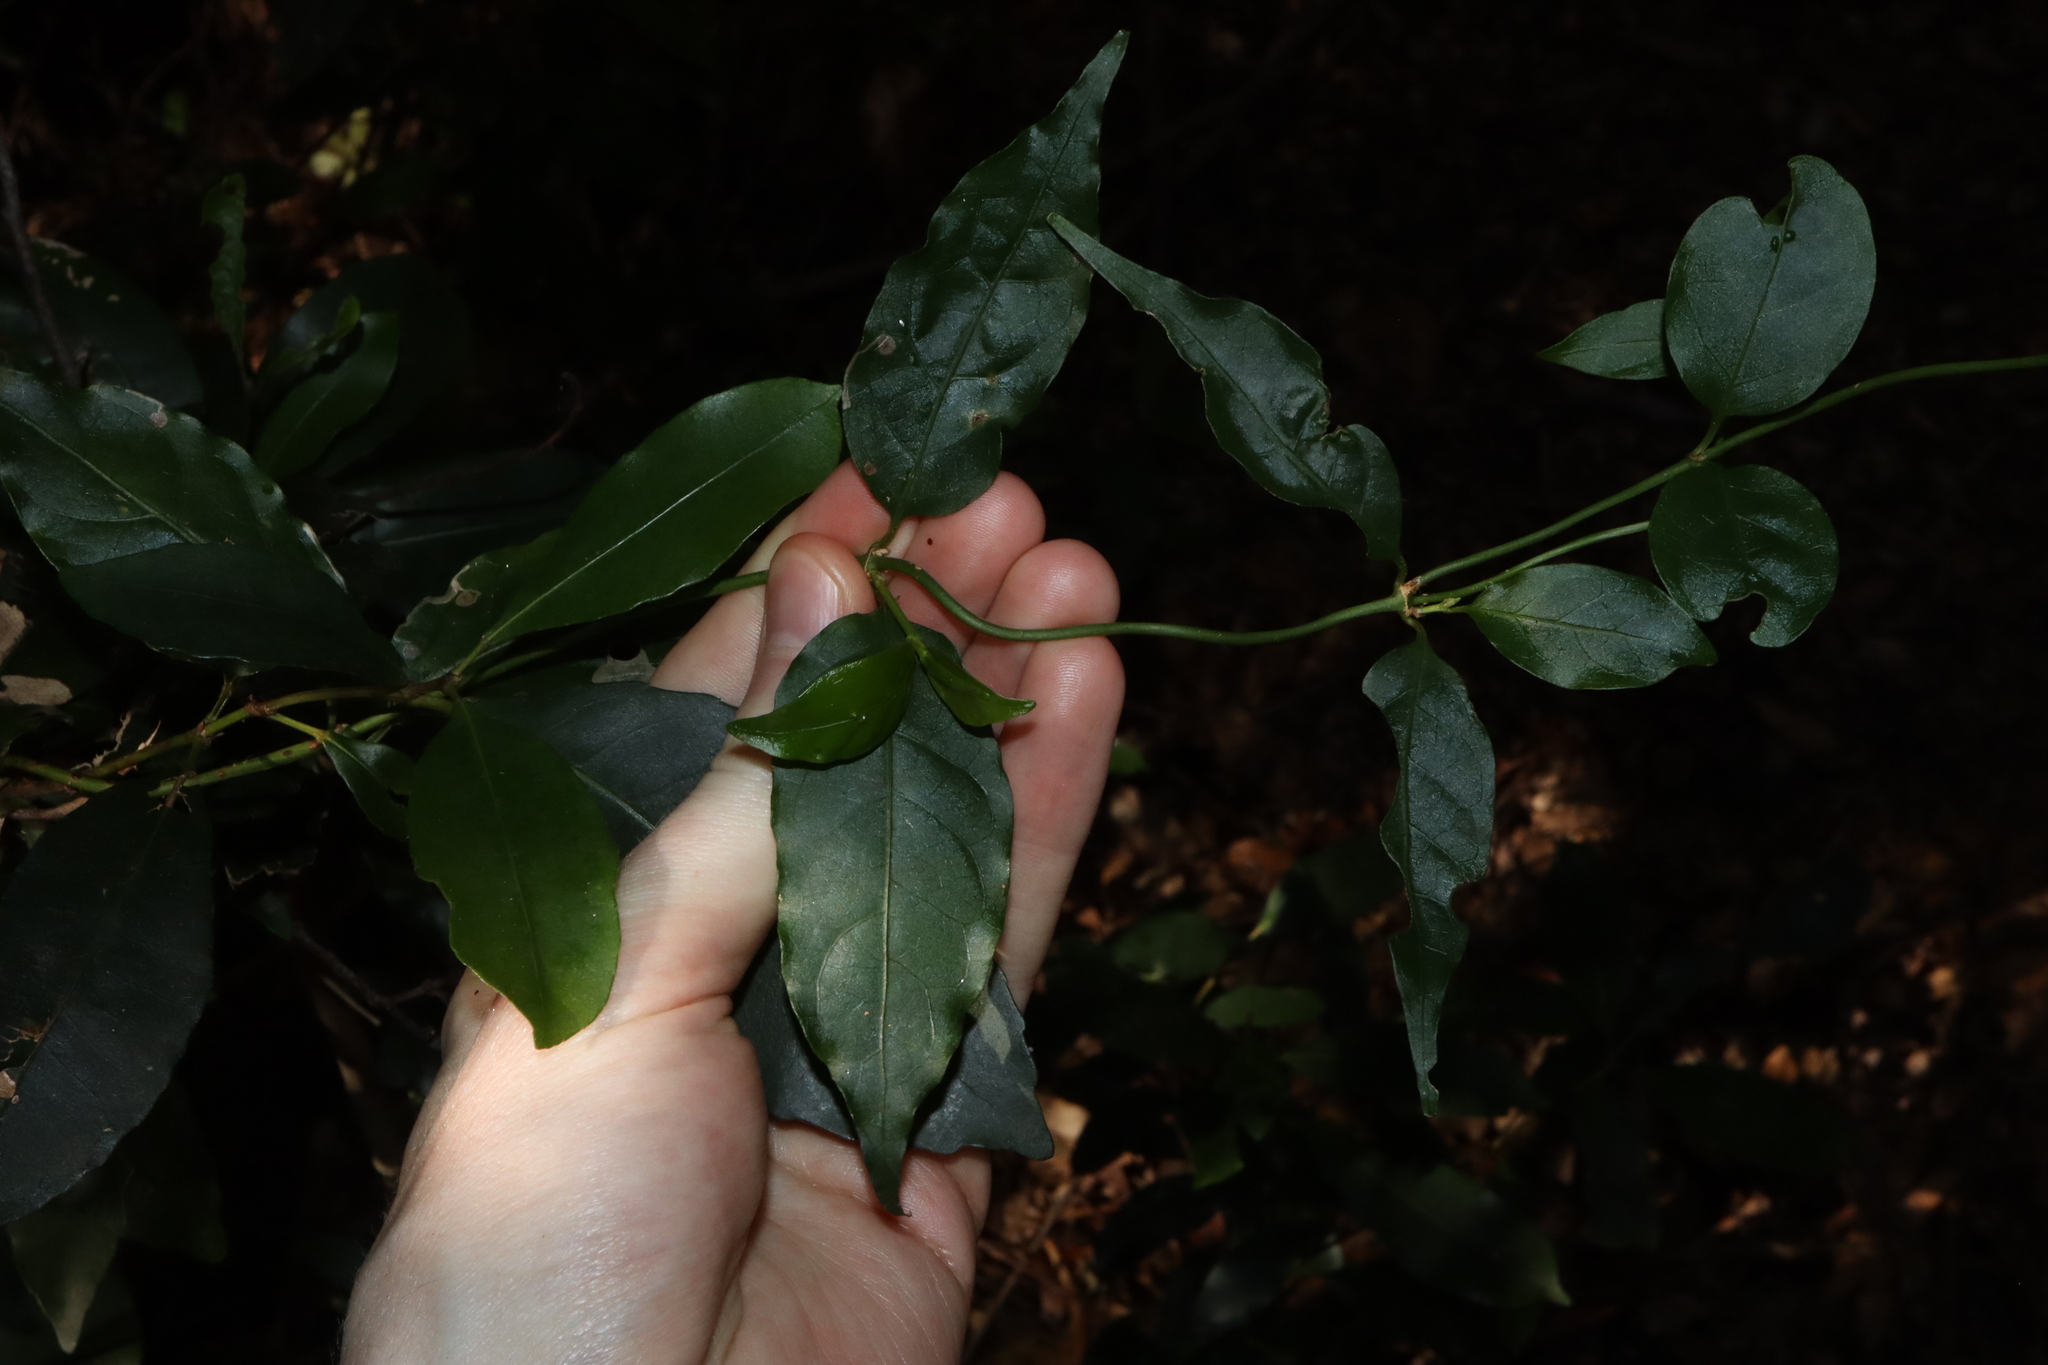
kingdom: Plantae
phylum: Tracheophyta
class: Magnoliopsida
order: Gentianales
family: Rubiaceae
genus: Gynochthodes
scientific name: Gynochthodes jasminoides
